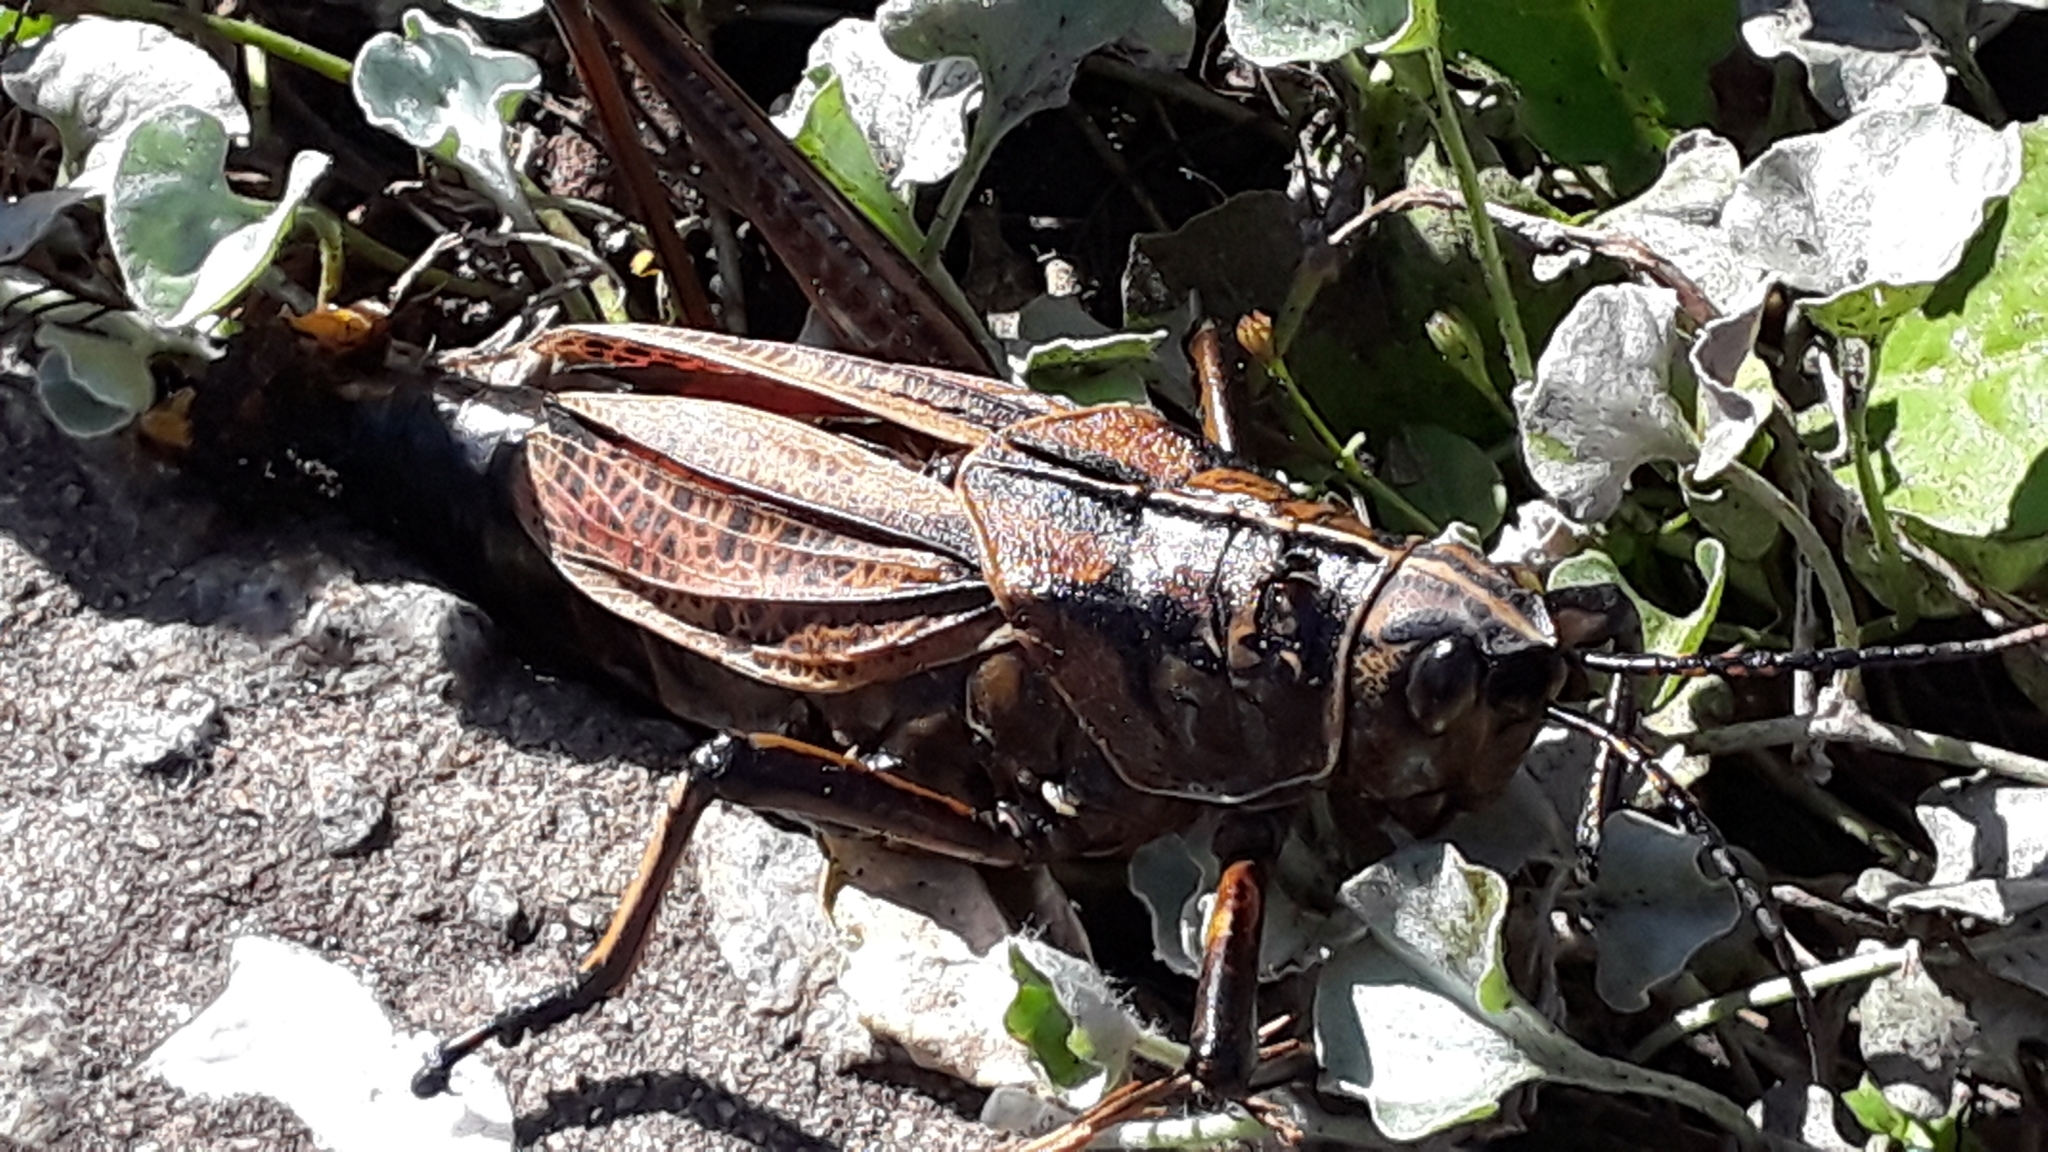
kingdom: Animalia
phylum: Arthropoda
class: Insecta
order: Orthoptera
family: Romaleidae
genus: Romalea
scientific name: Romalea microptera
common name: Eastern lubber grasshopper
